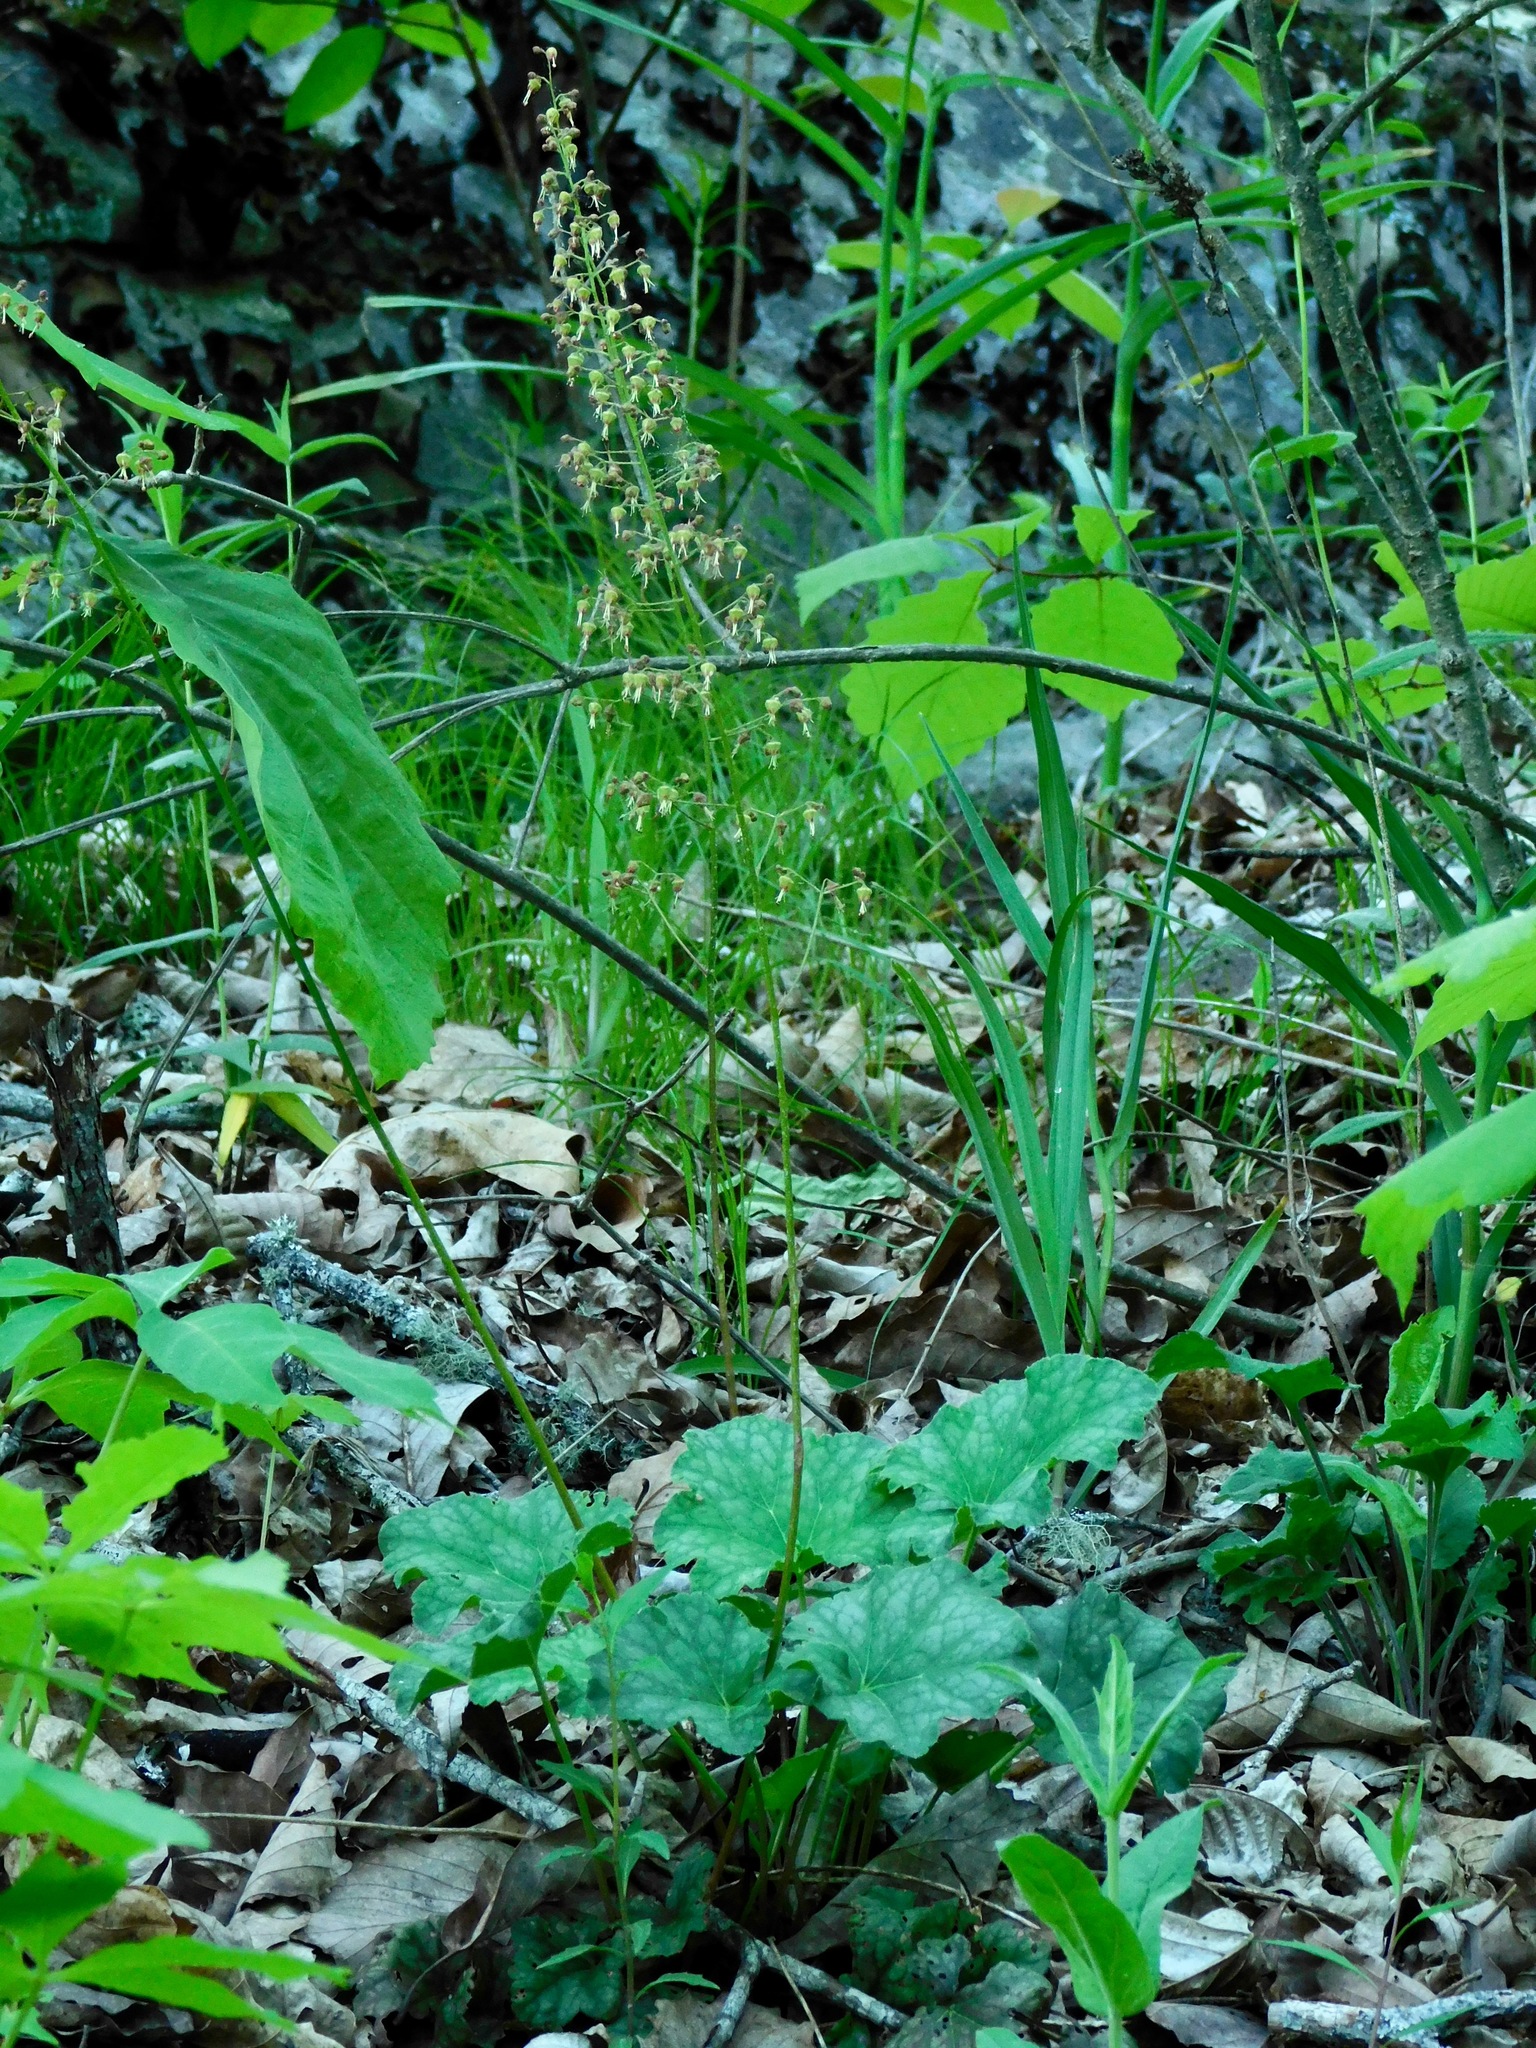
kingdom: Plantae
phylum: Tracheophyta
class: Magnoliopsida
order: Saxifragales
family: Saxifragaceae
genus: Heuchera
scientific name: Heuchera americana
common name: Alumroot
